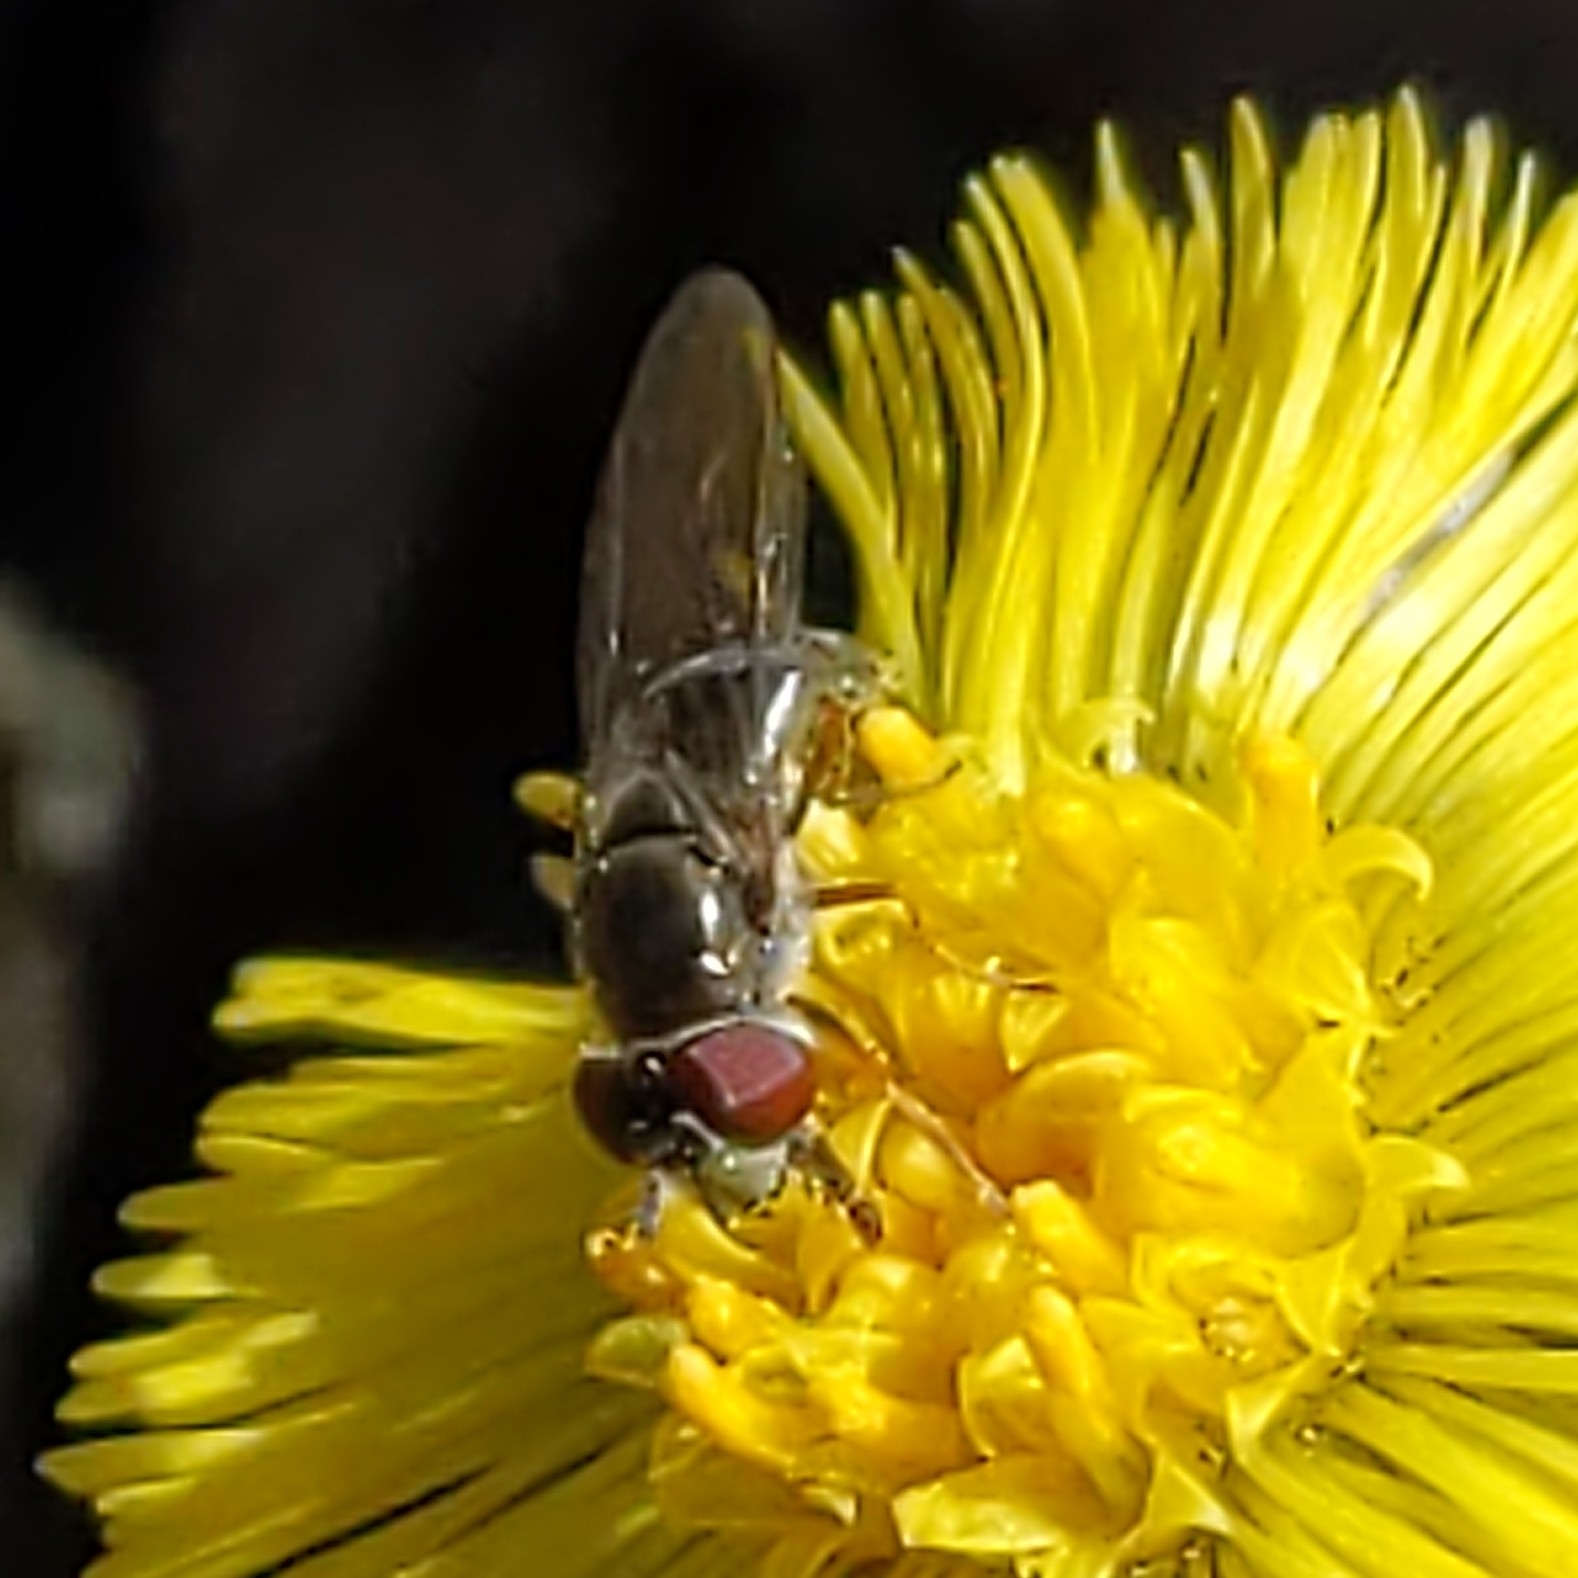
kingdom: Animalia
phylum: Arthropoda
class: Insecta
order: Diptera
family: Syrphidae
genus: Platycheirus
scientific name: Platycheirus
